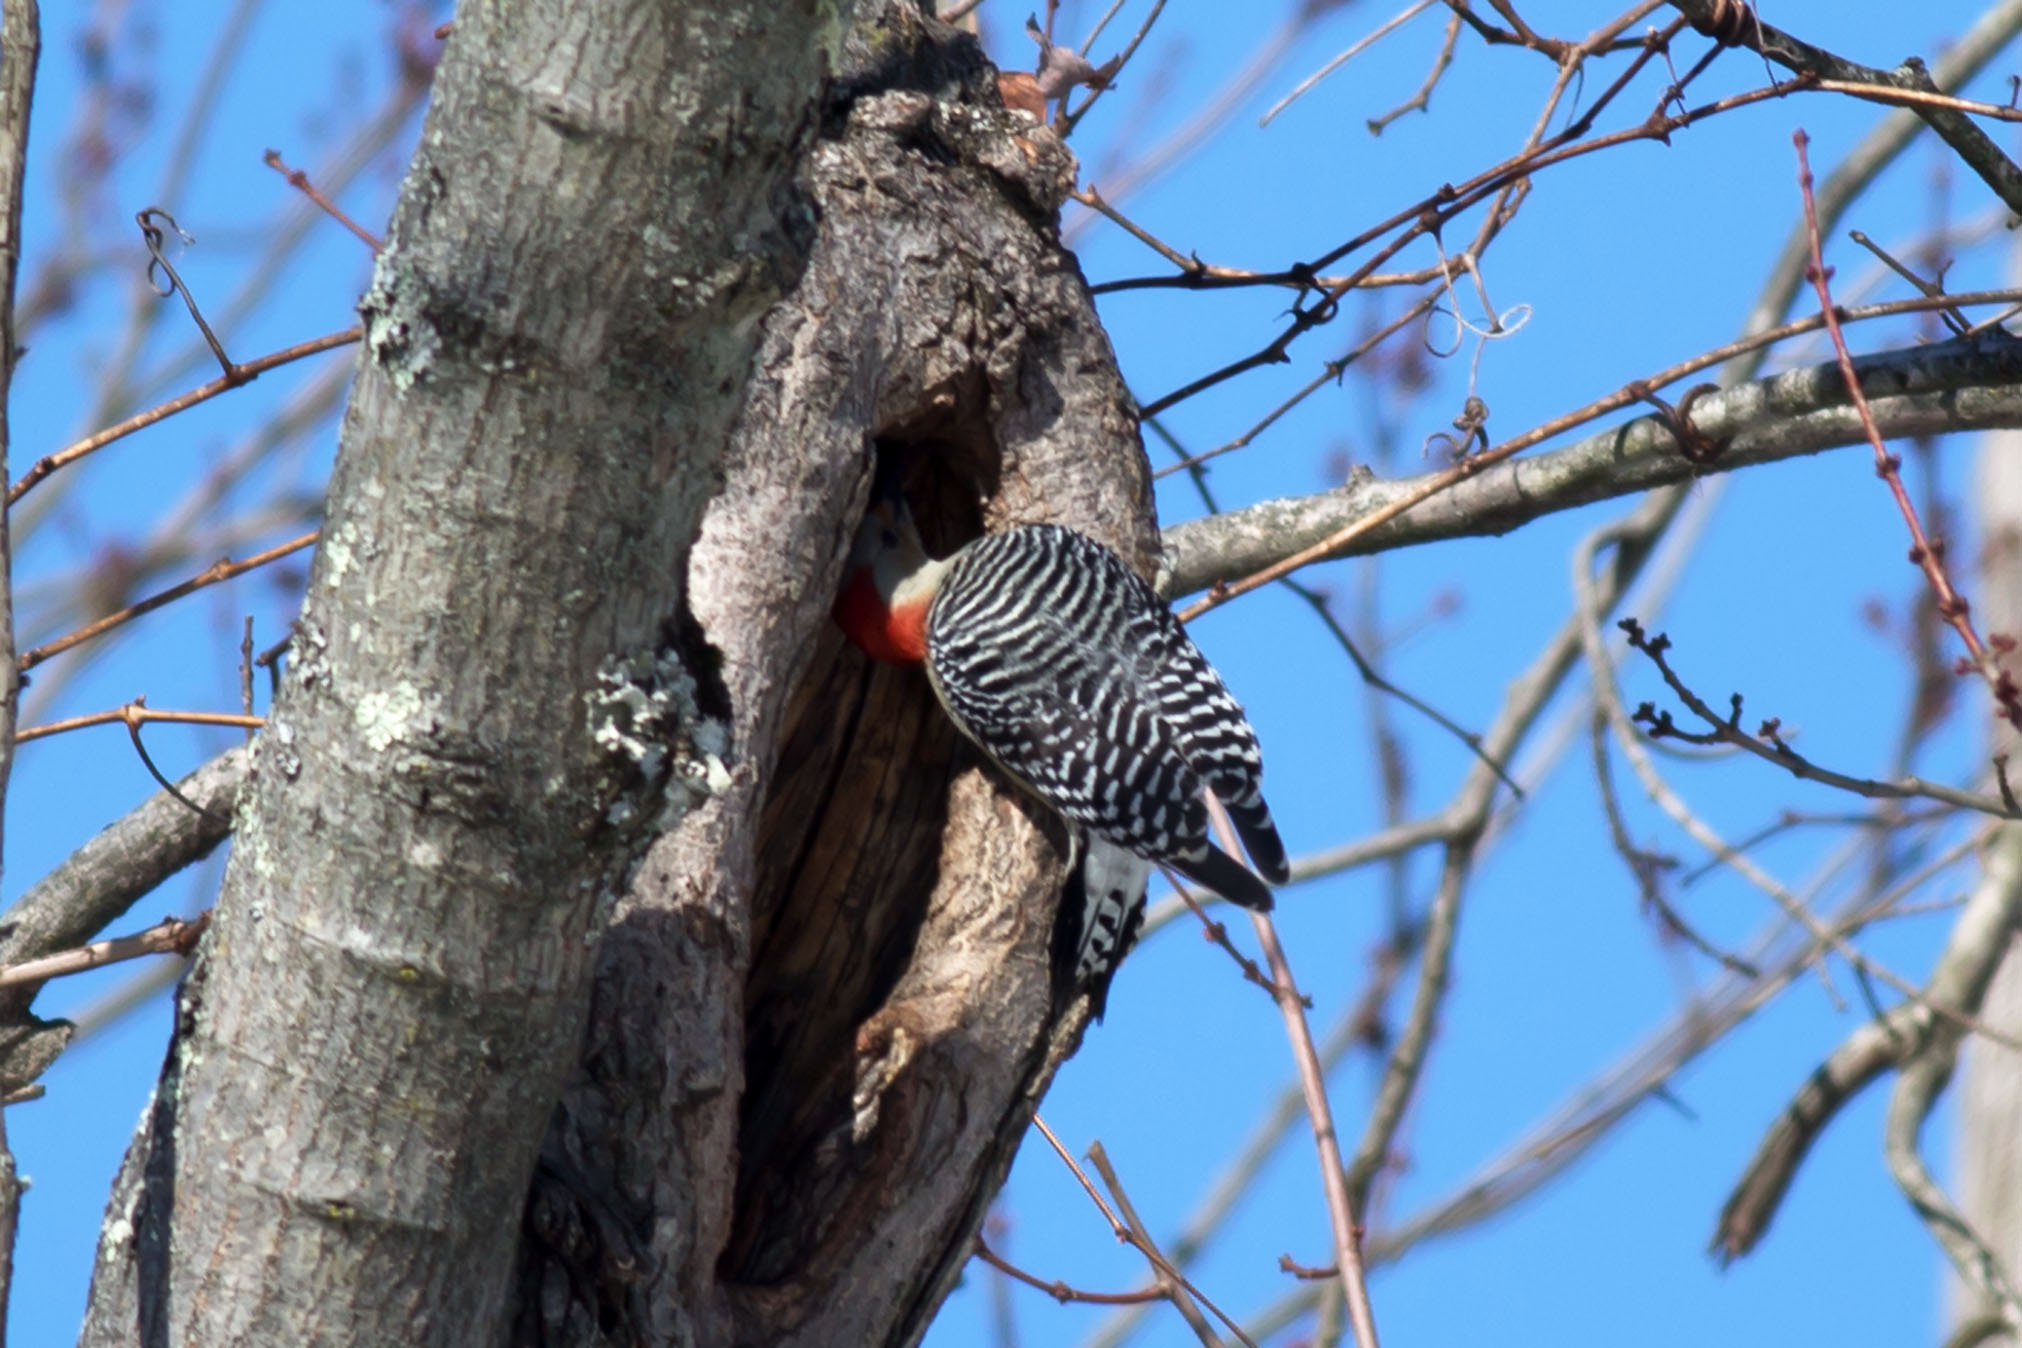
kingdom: Animalia
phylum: Chordata
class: Aves
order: Piciformes
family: Picidae
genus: Melanerpes
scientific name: Melanerpes carolinus
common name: Red-bellied woodpecker
